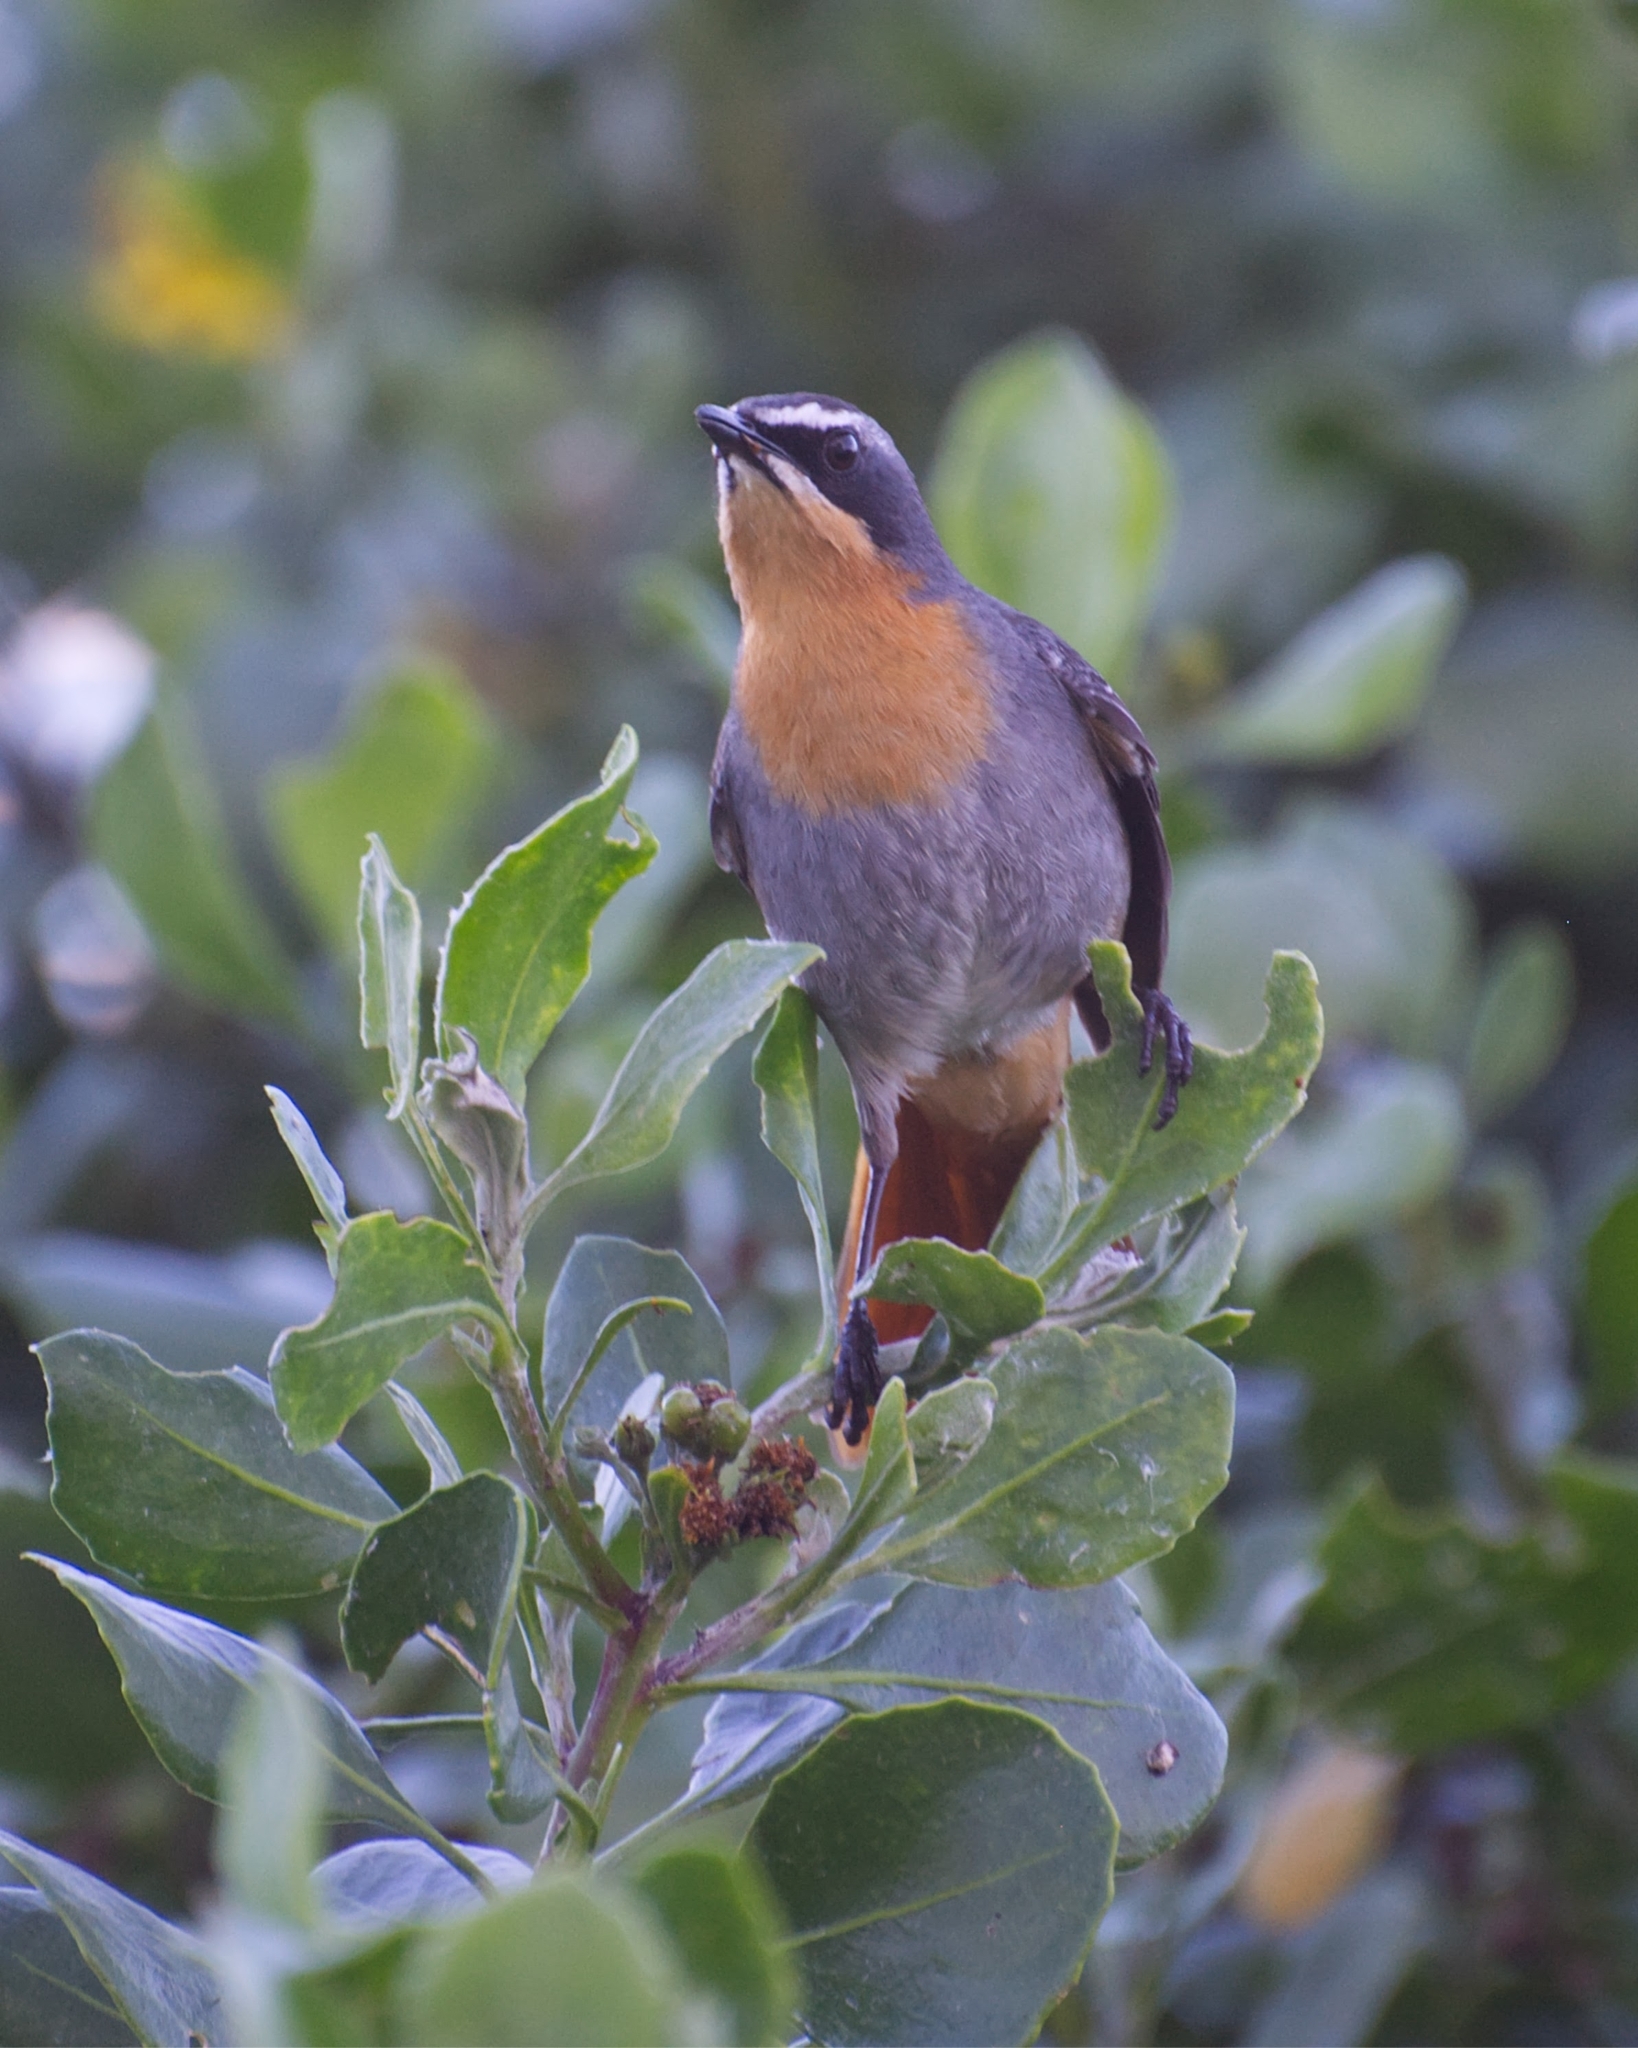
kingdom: Animalia
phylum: Chordata
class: Aves
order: Passeriformes
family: Muscicapidae
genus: Cossypha
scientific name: Cossypha caffra
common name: Cape robin-chat
